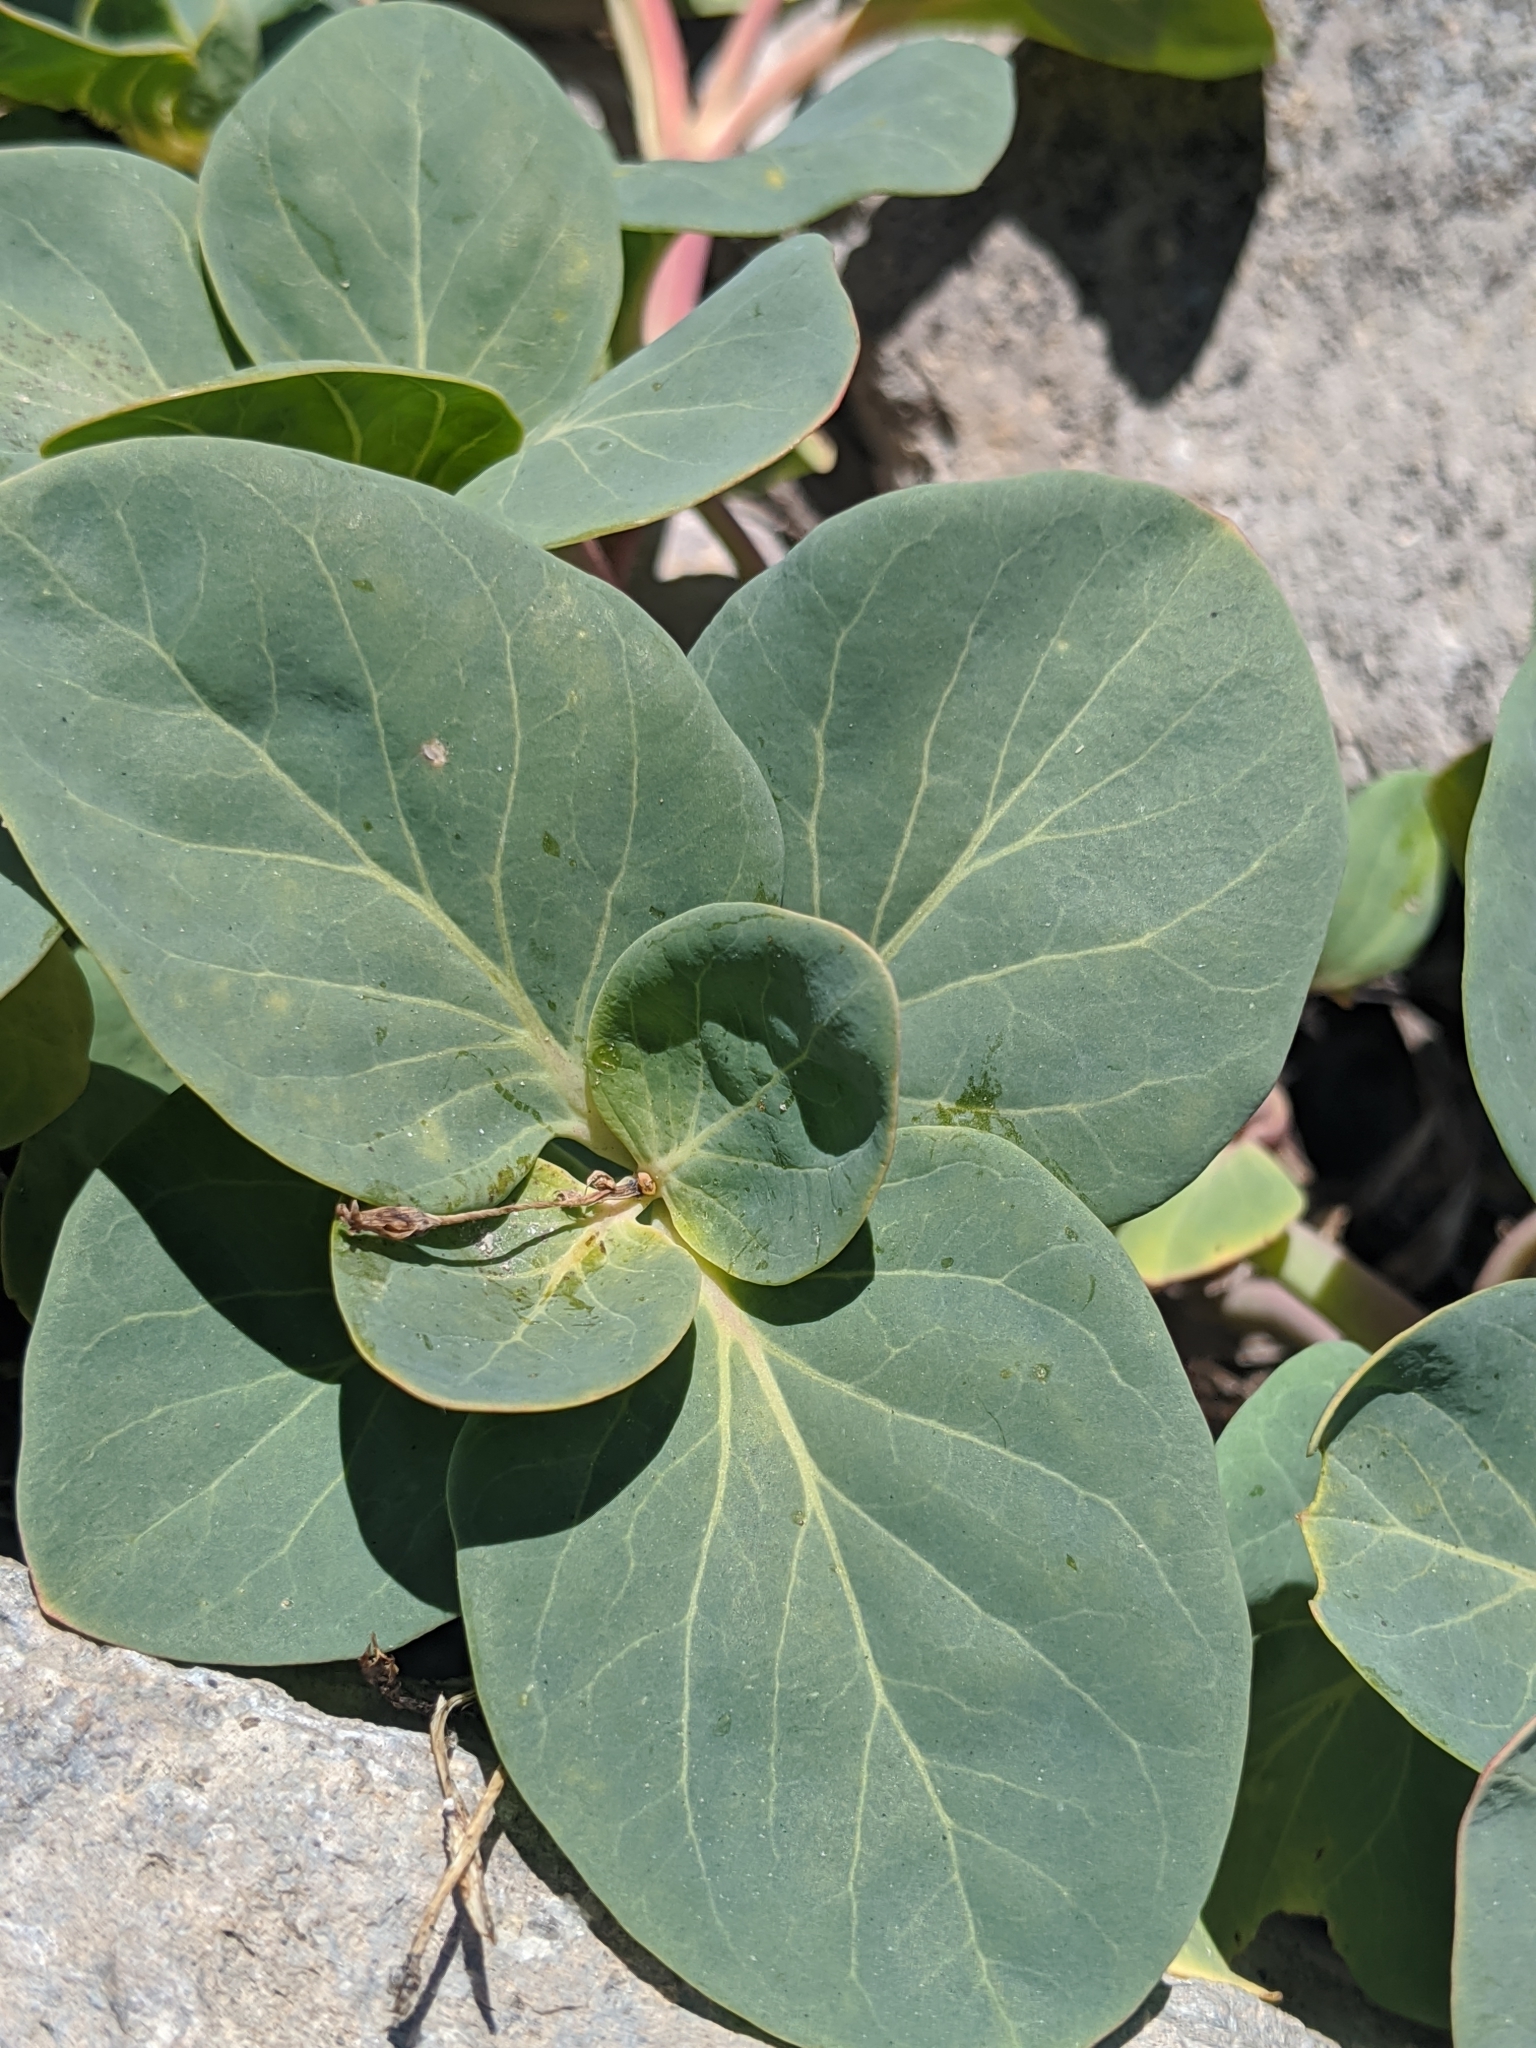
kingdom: Plantae
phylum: Tracheophyta
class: Magnoliopsida
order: Gentianales
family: Apocynaceae
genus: Cycladenia
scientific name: Cycladenia humilis
